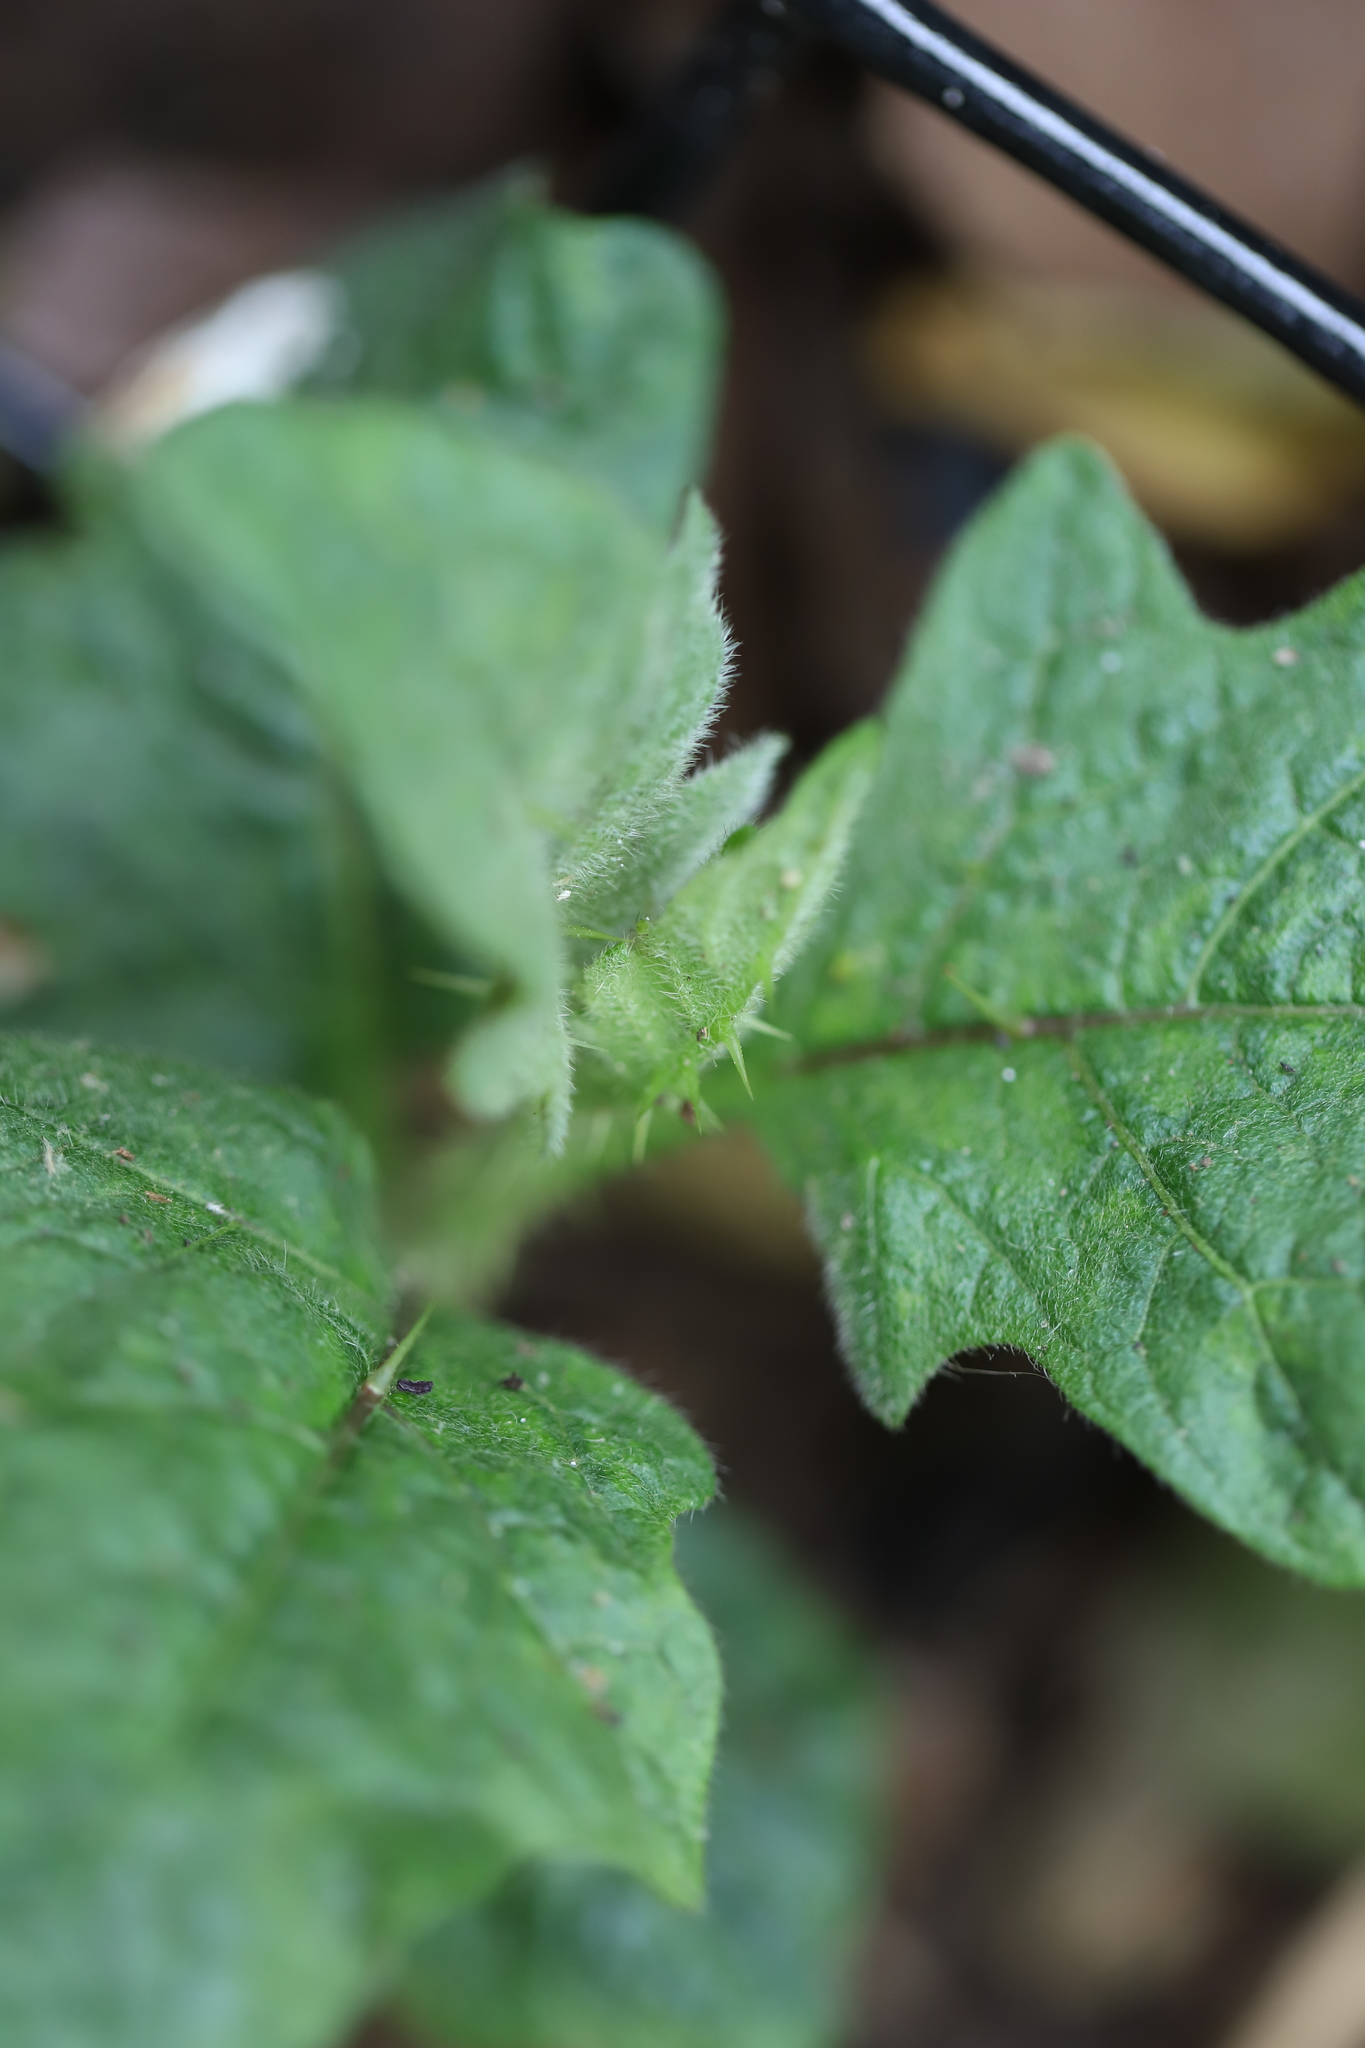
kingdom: Plantae
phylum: Tracheophyta
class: Magnoliopsida
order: Solanales
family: Solanaceae
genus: Solanum
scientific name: Solanum carolinense
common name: Horse-nettle
